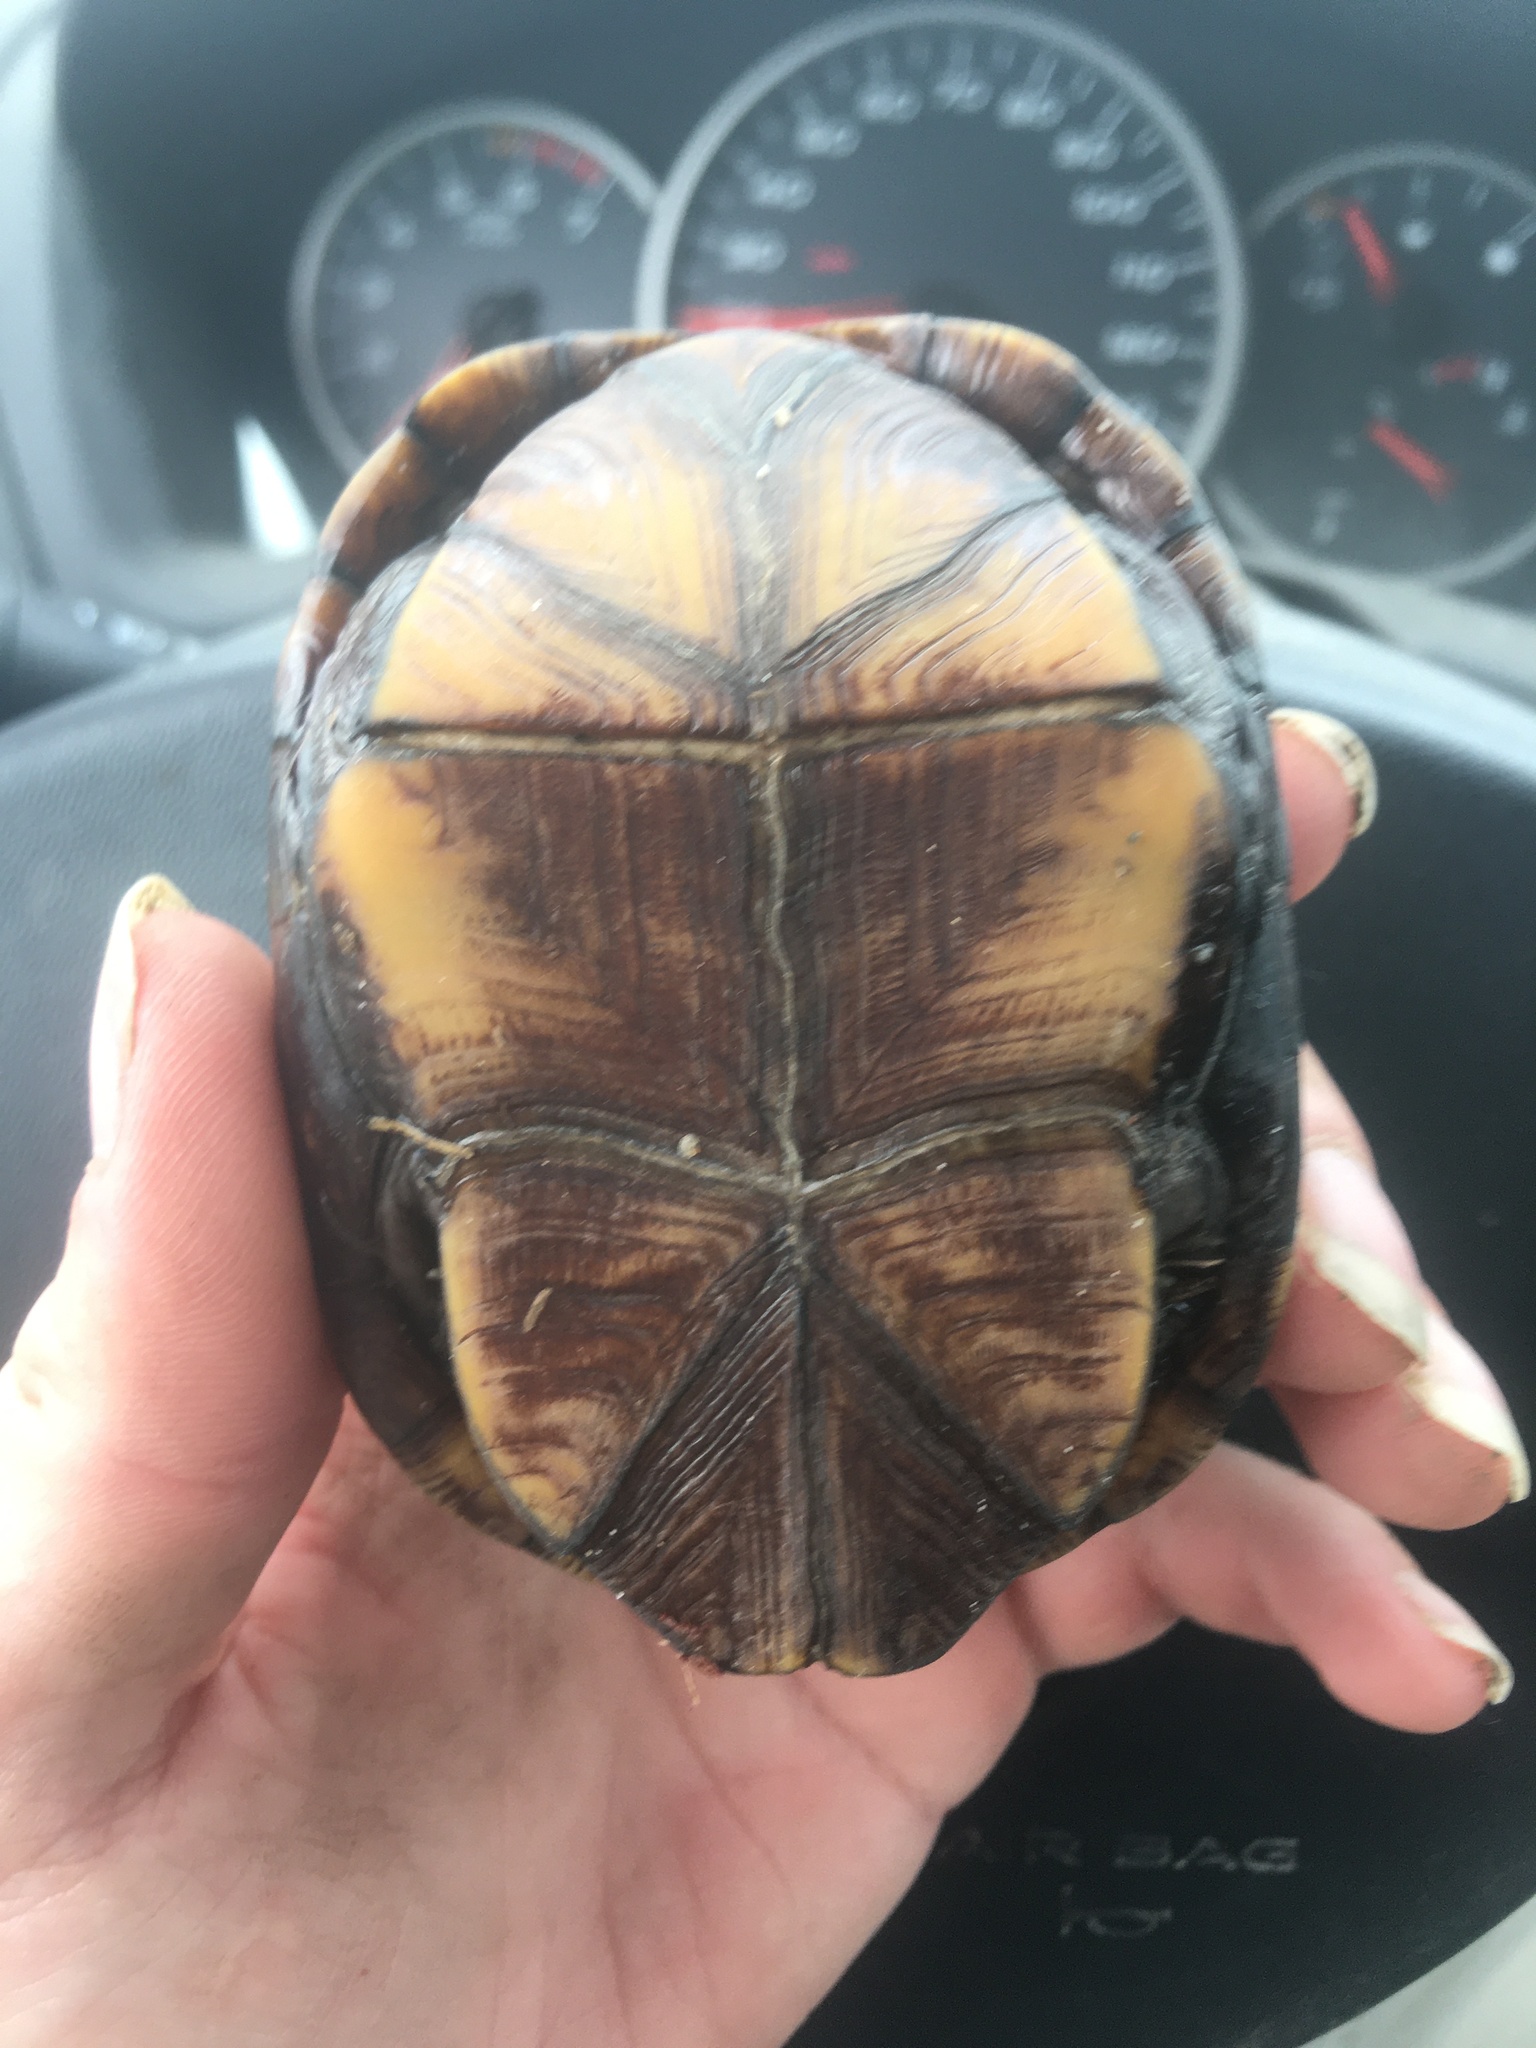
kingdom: Animalia
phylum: Chordata
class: Testudines
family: Kinosternidae
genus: Kinosternon
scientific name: Kinosternon subrubrum
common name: Eastern mud turtle
